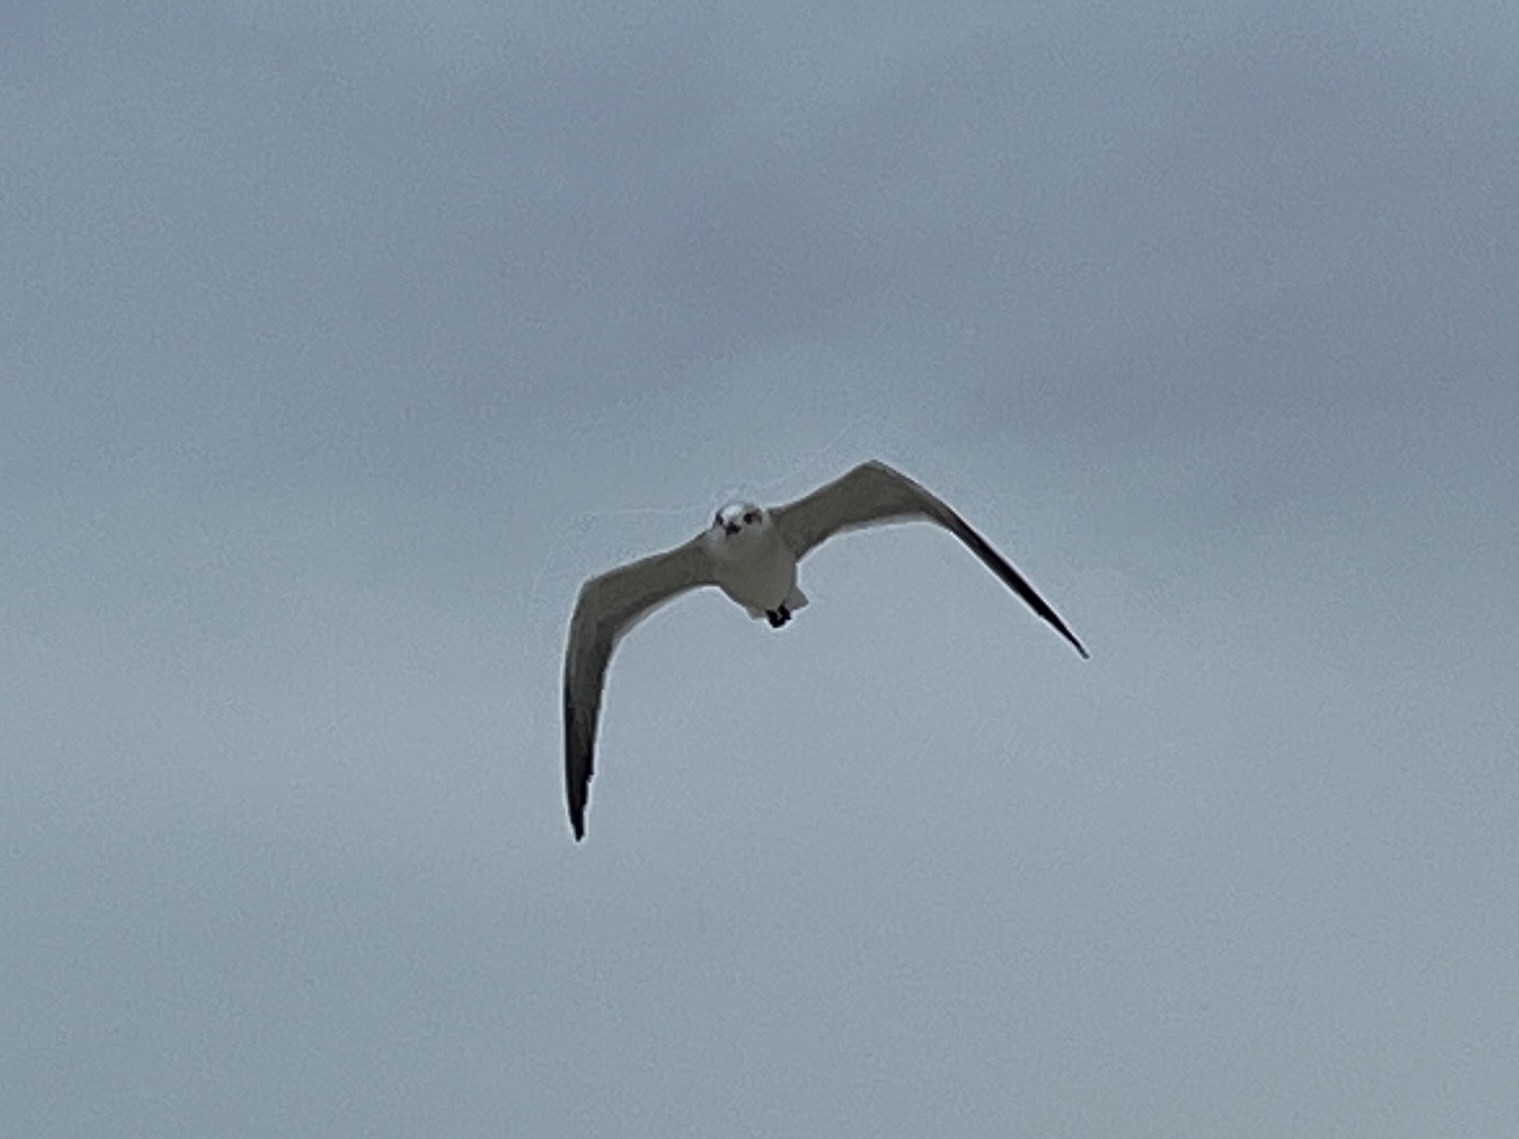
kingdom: Animalia
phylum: Chordata
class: Aves
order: Charadriiformes
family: Laridae
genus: Leucophaeus
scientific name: Leucophaeus atricilla
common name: Laughing gull
